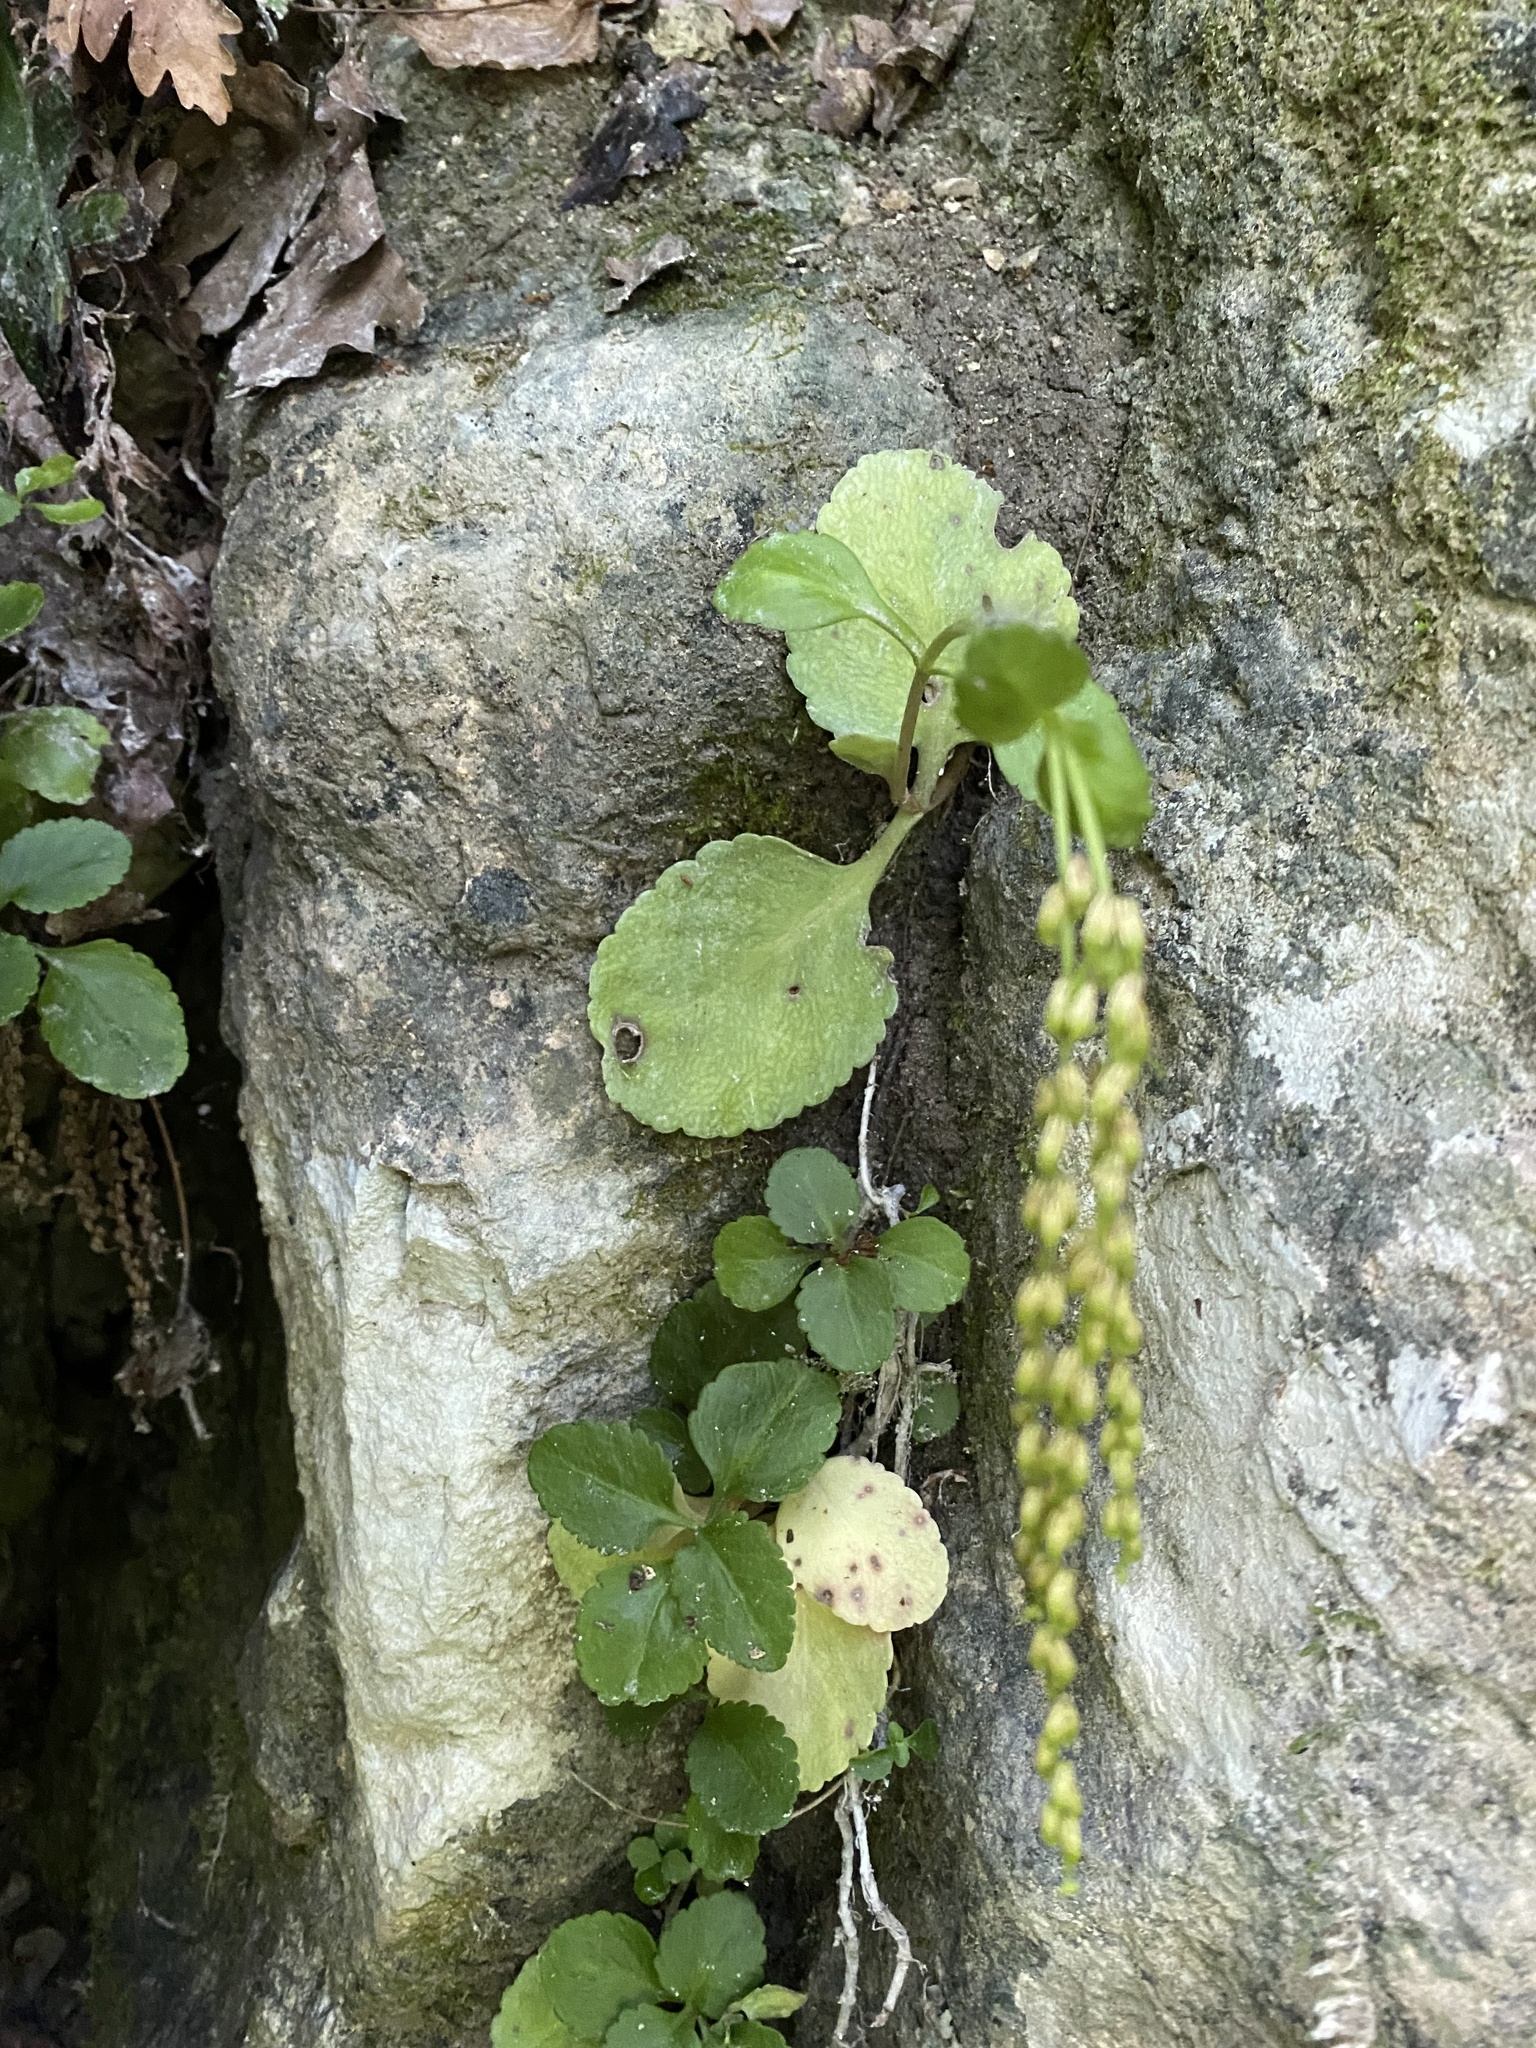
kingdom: Plantae
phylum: Tracheophyta
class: Magnoliopsida
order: Saxifragales
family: Crassulaceae
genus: Umbilicus
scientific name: Umbilicus oppositifolius
